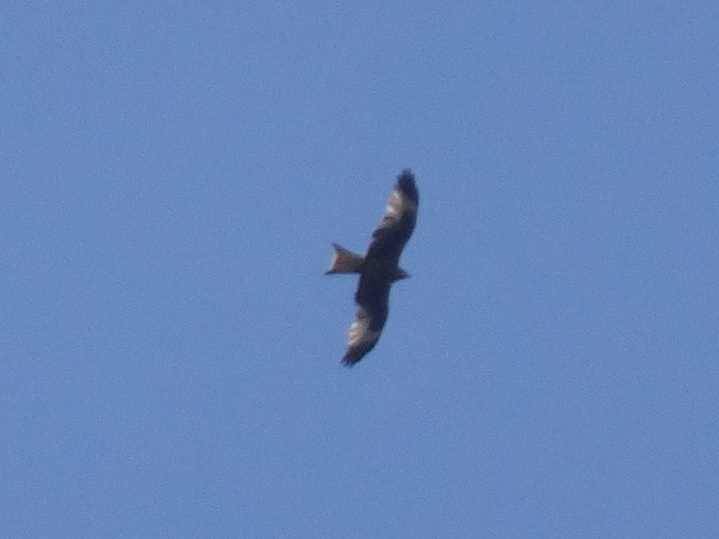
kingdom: Animalia
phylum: Chordata
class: Aves
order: Accipitriformes
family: Accipitridae
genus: Milvus
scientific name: Milvus milvus
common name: Red kite
